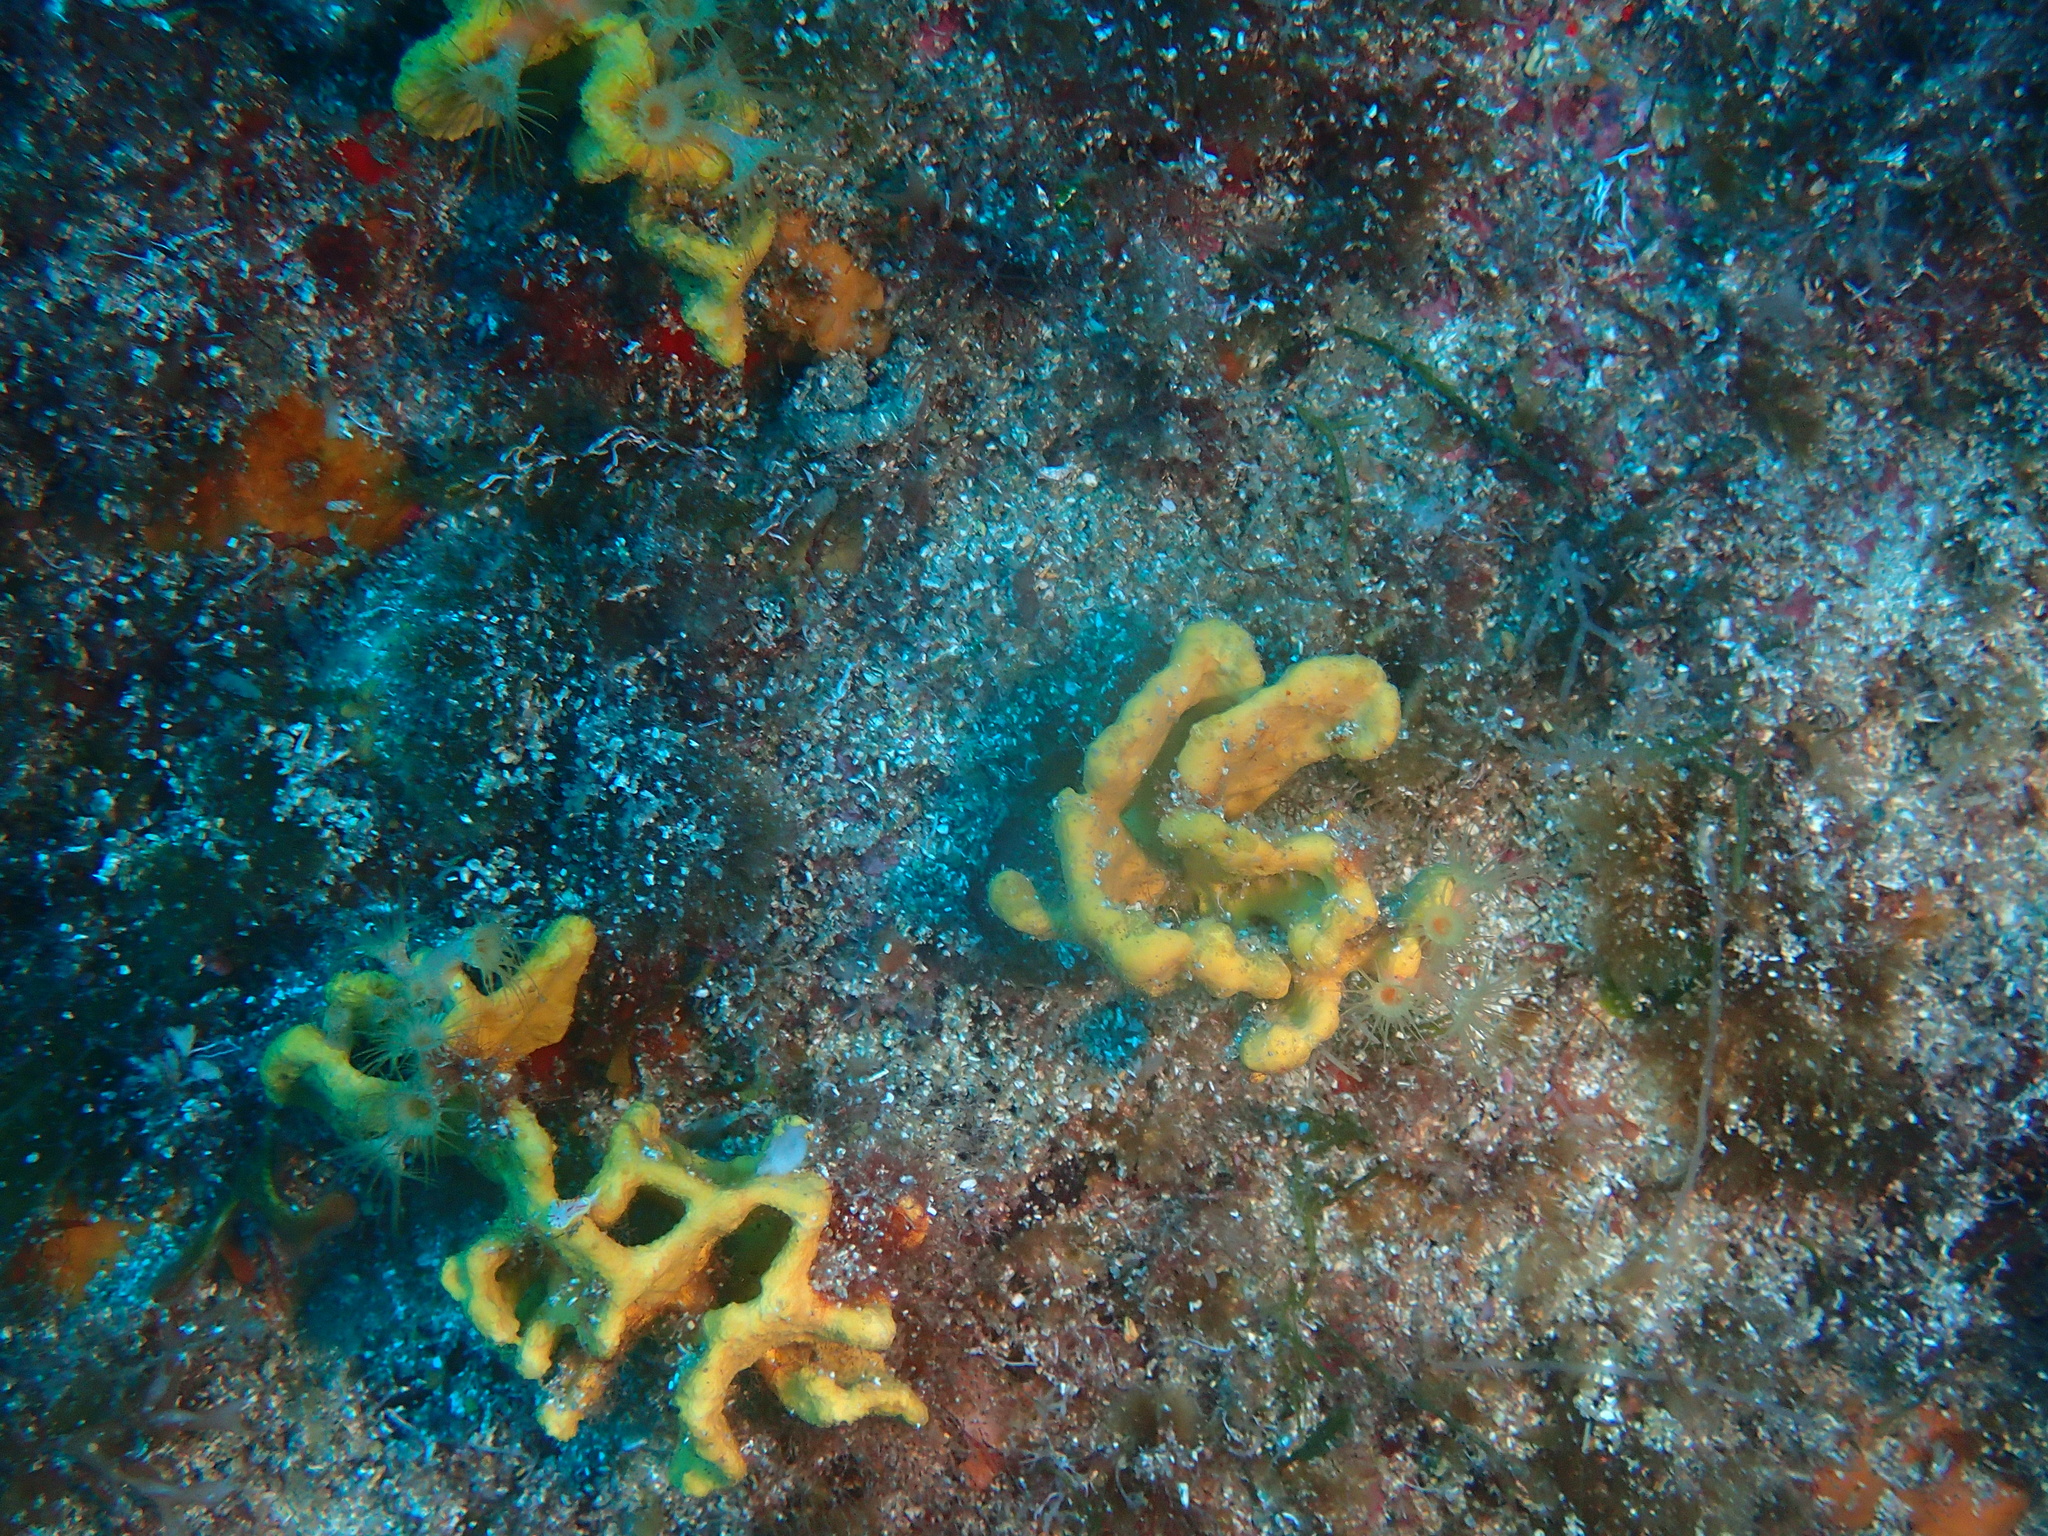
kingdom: Animalia
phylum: Porifera
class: Demospongiae
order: Axinellida
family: Axinellidae
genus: Axinella
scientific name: Axinella damicornis
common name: Crumpled duster sponge
